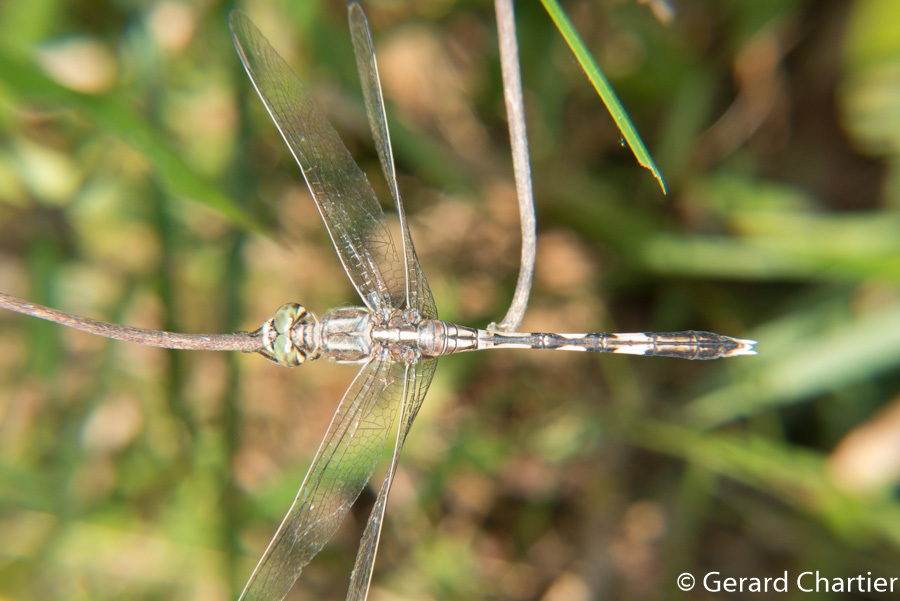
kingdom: Animalia
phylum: Arthropoda
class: Insecta
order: Odonata
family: Libellulidae
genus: Orthetrum
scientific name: Orthetrum sabina
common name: Slender skimmer
